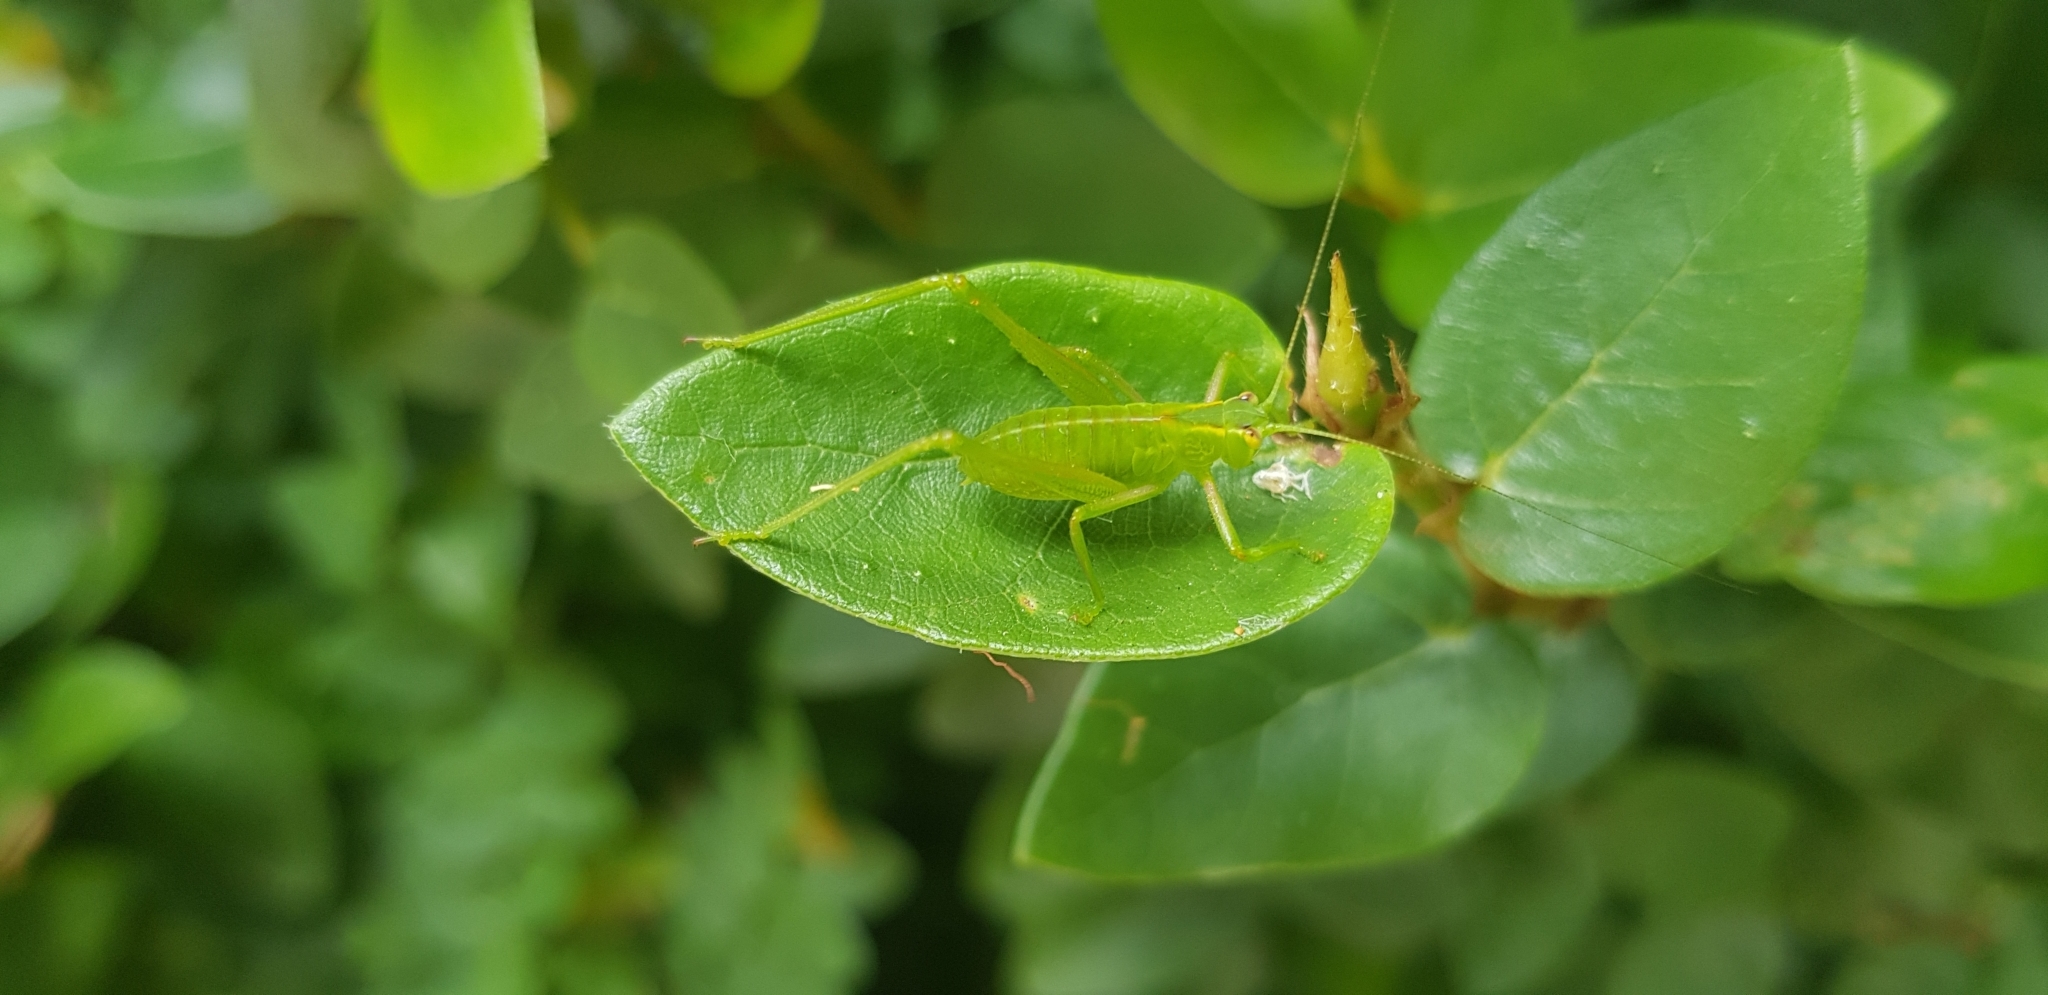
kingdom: Animalia
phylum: Arthropoda
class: Insecta
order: Orthoptera
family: Tettigoniidae
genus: Caedicia
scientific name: Caedicia simplex
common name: Common garden katydid
